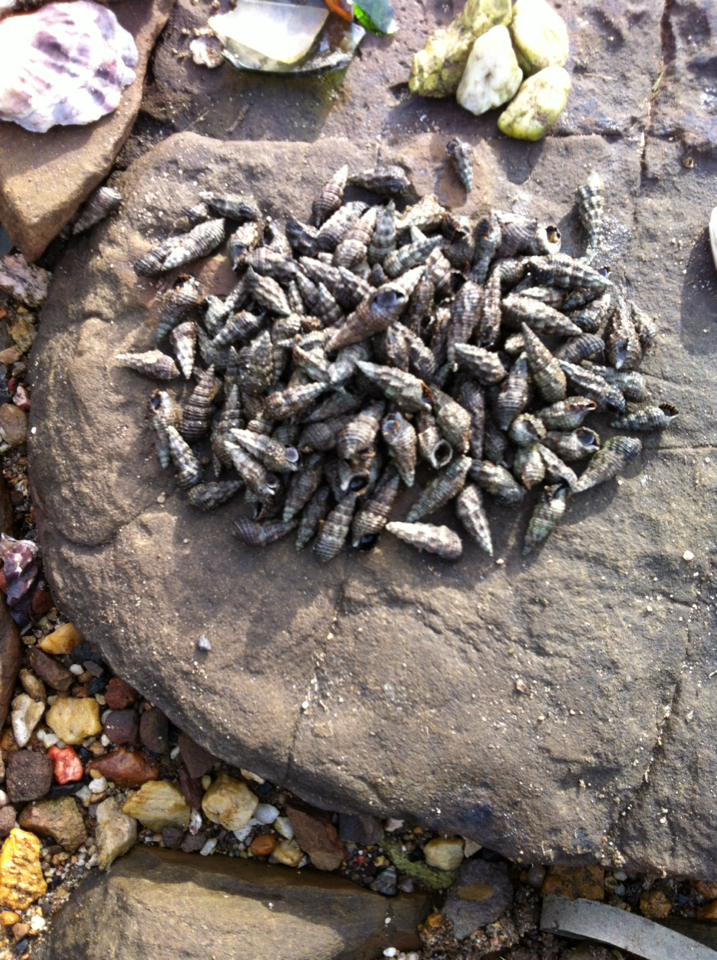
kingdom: Animalia
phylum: Mollusca
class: Gastropoda
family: Batillariidae
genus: Batillaria
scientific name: Batillaria australis
